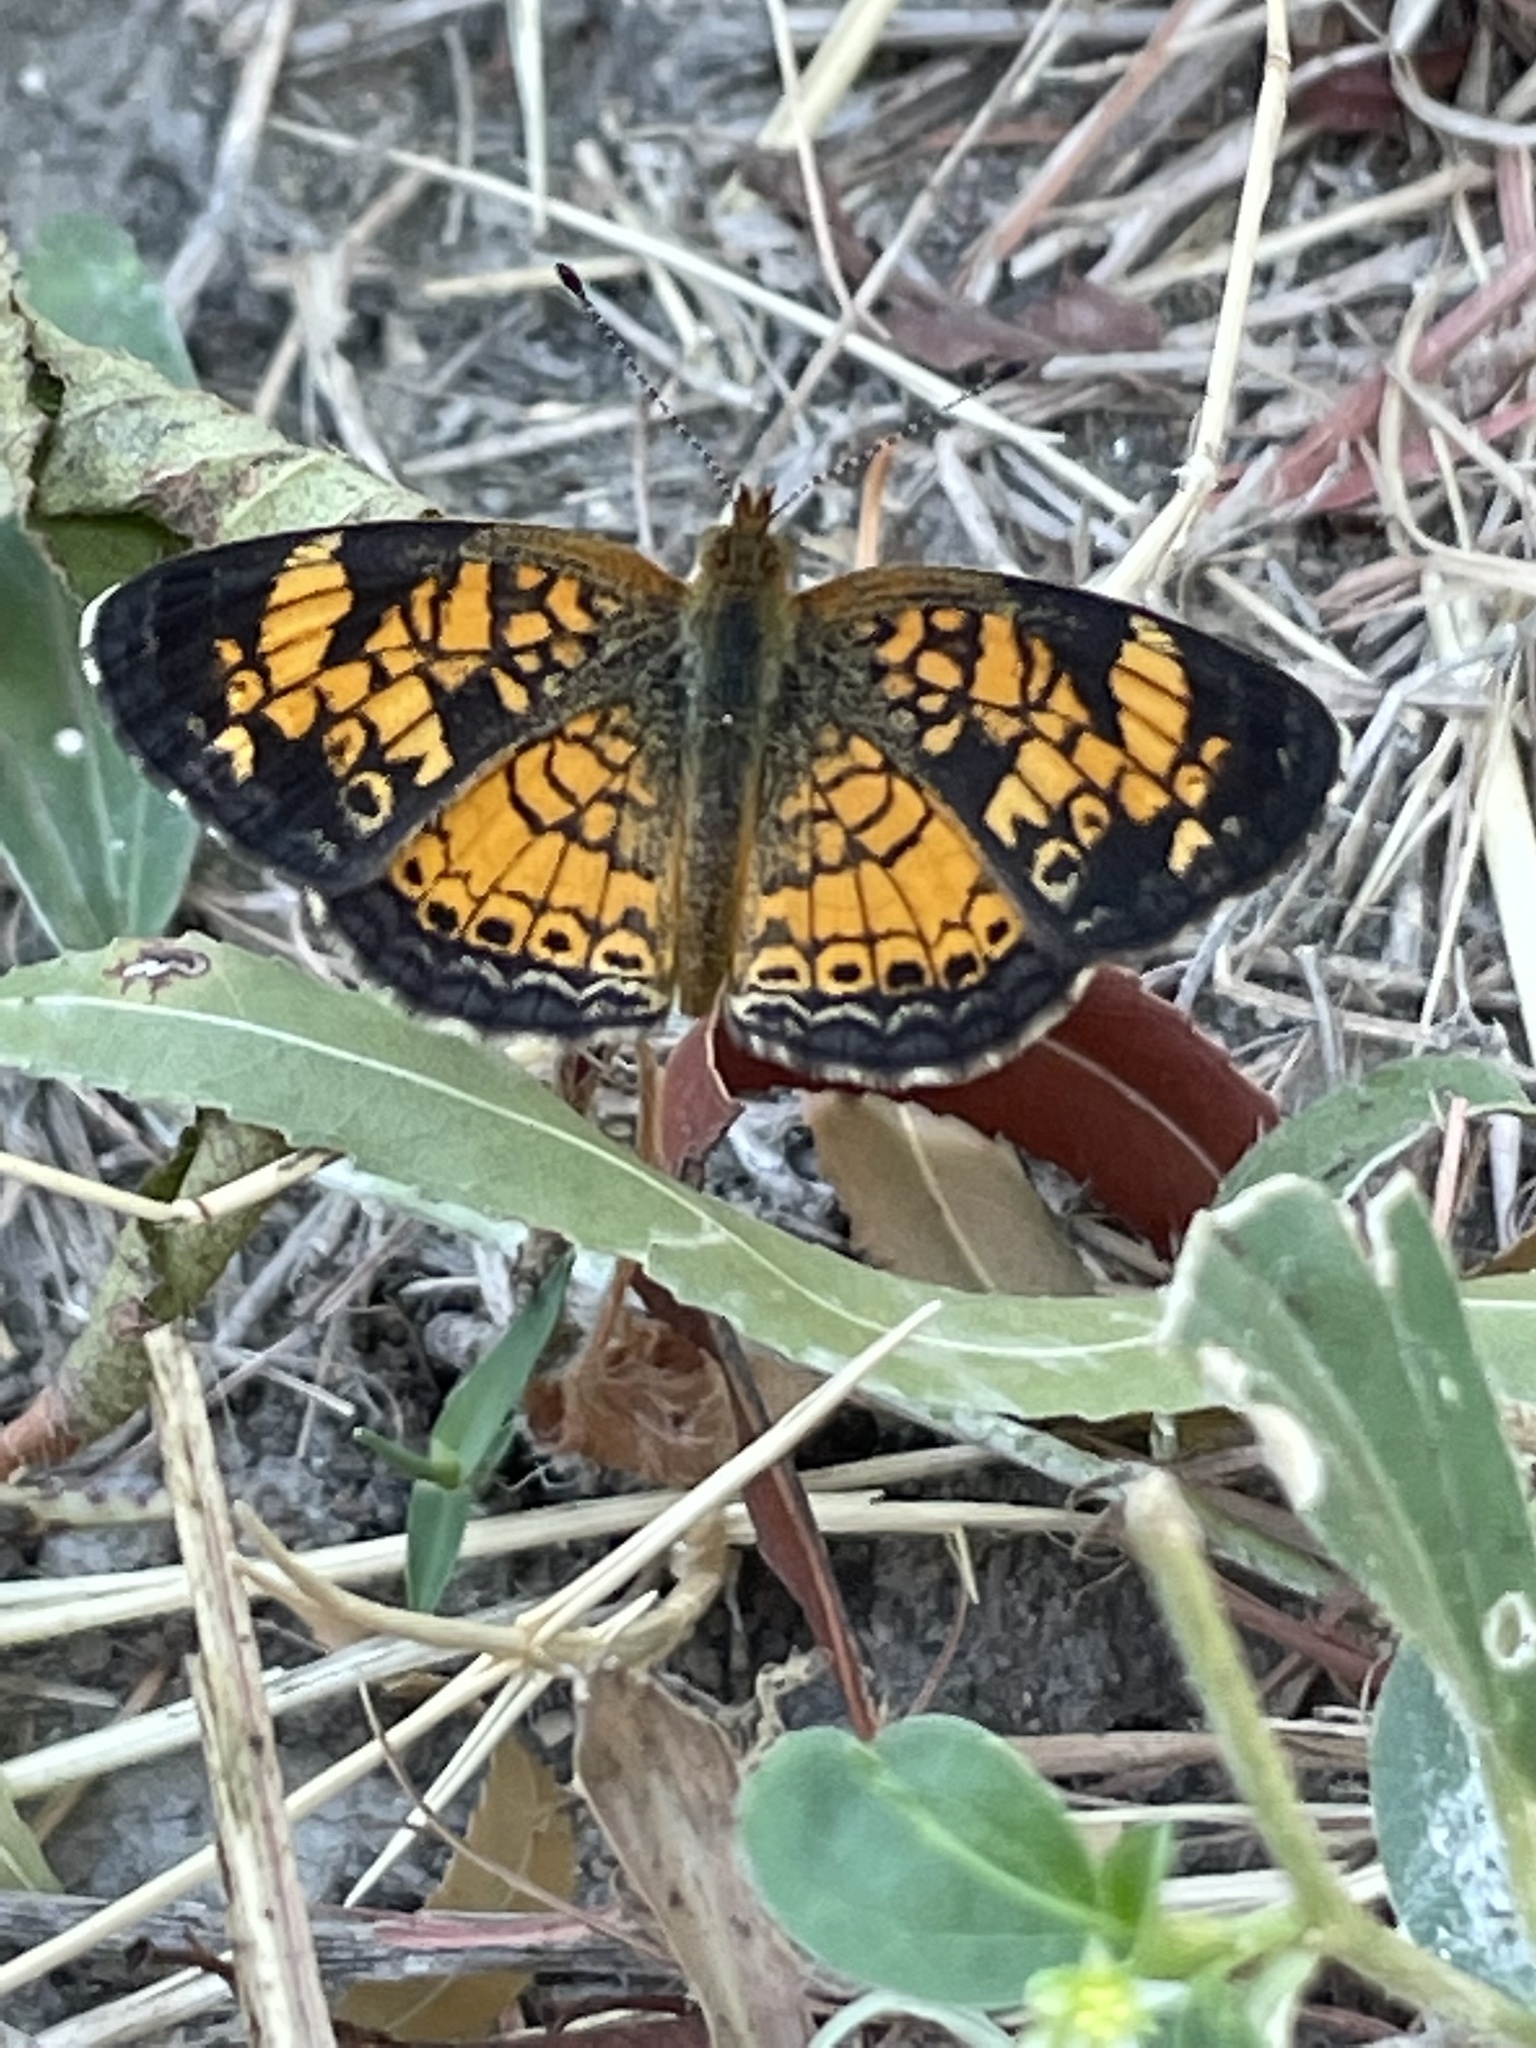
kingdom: Animalia
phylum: Arthropoda
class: Insecta
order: Lepidoptera
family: Nymphalidae
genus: Phyciodes
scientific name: Phyciodes tharos
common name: Pearl crescent
